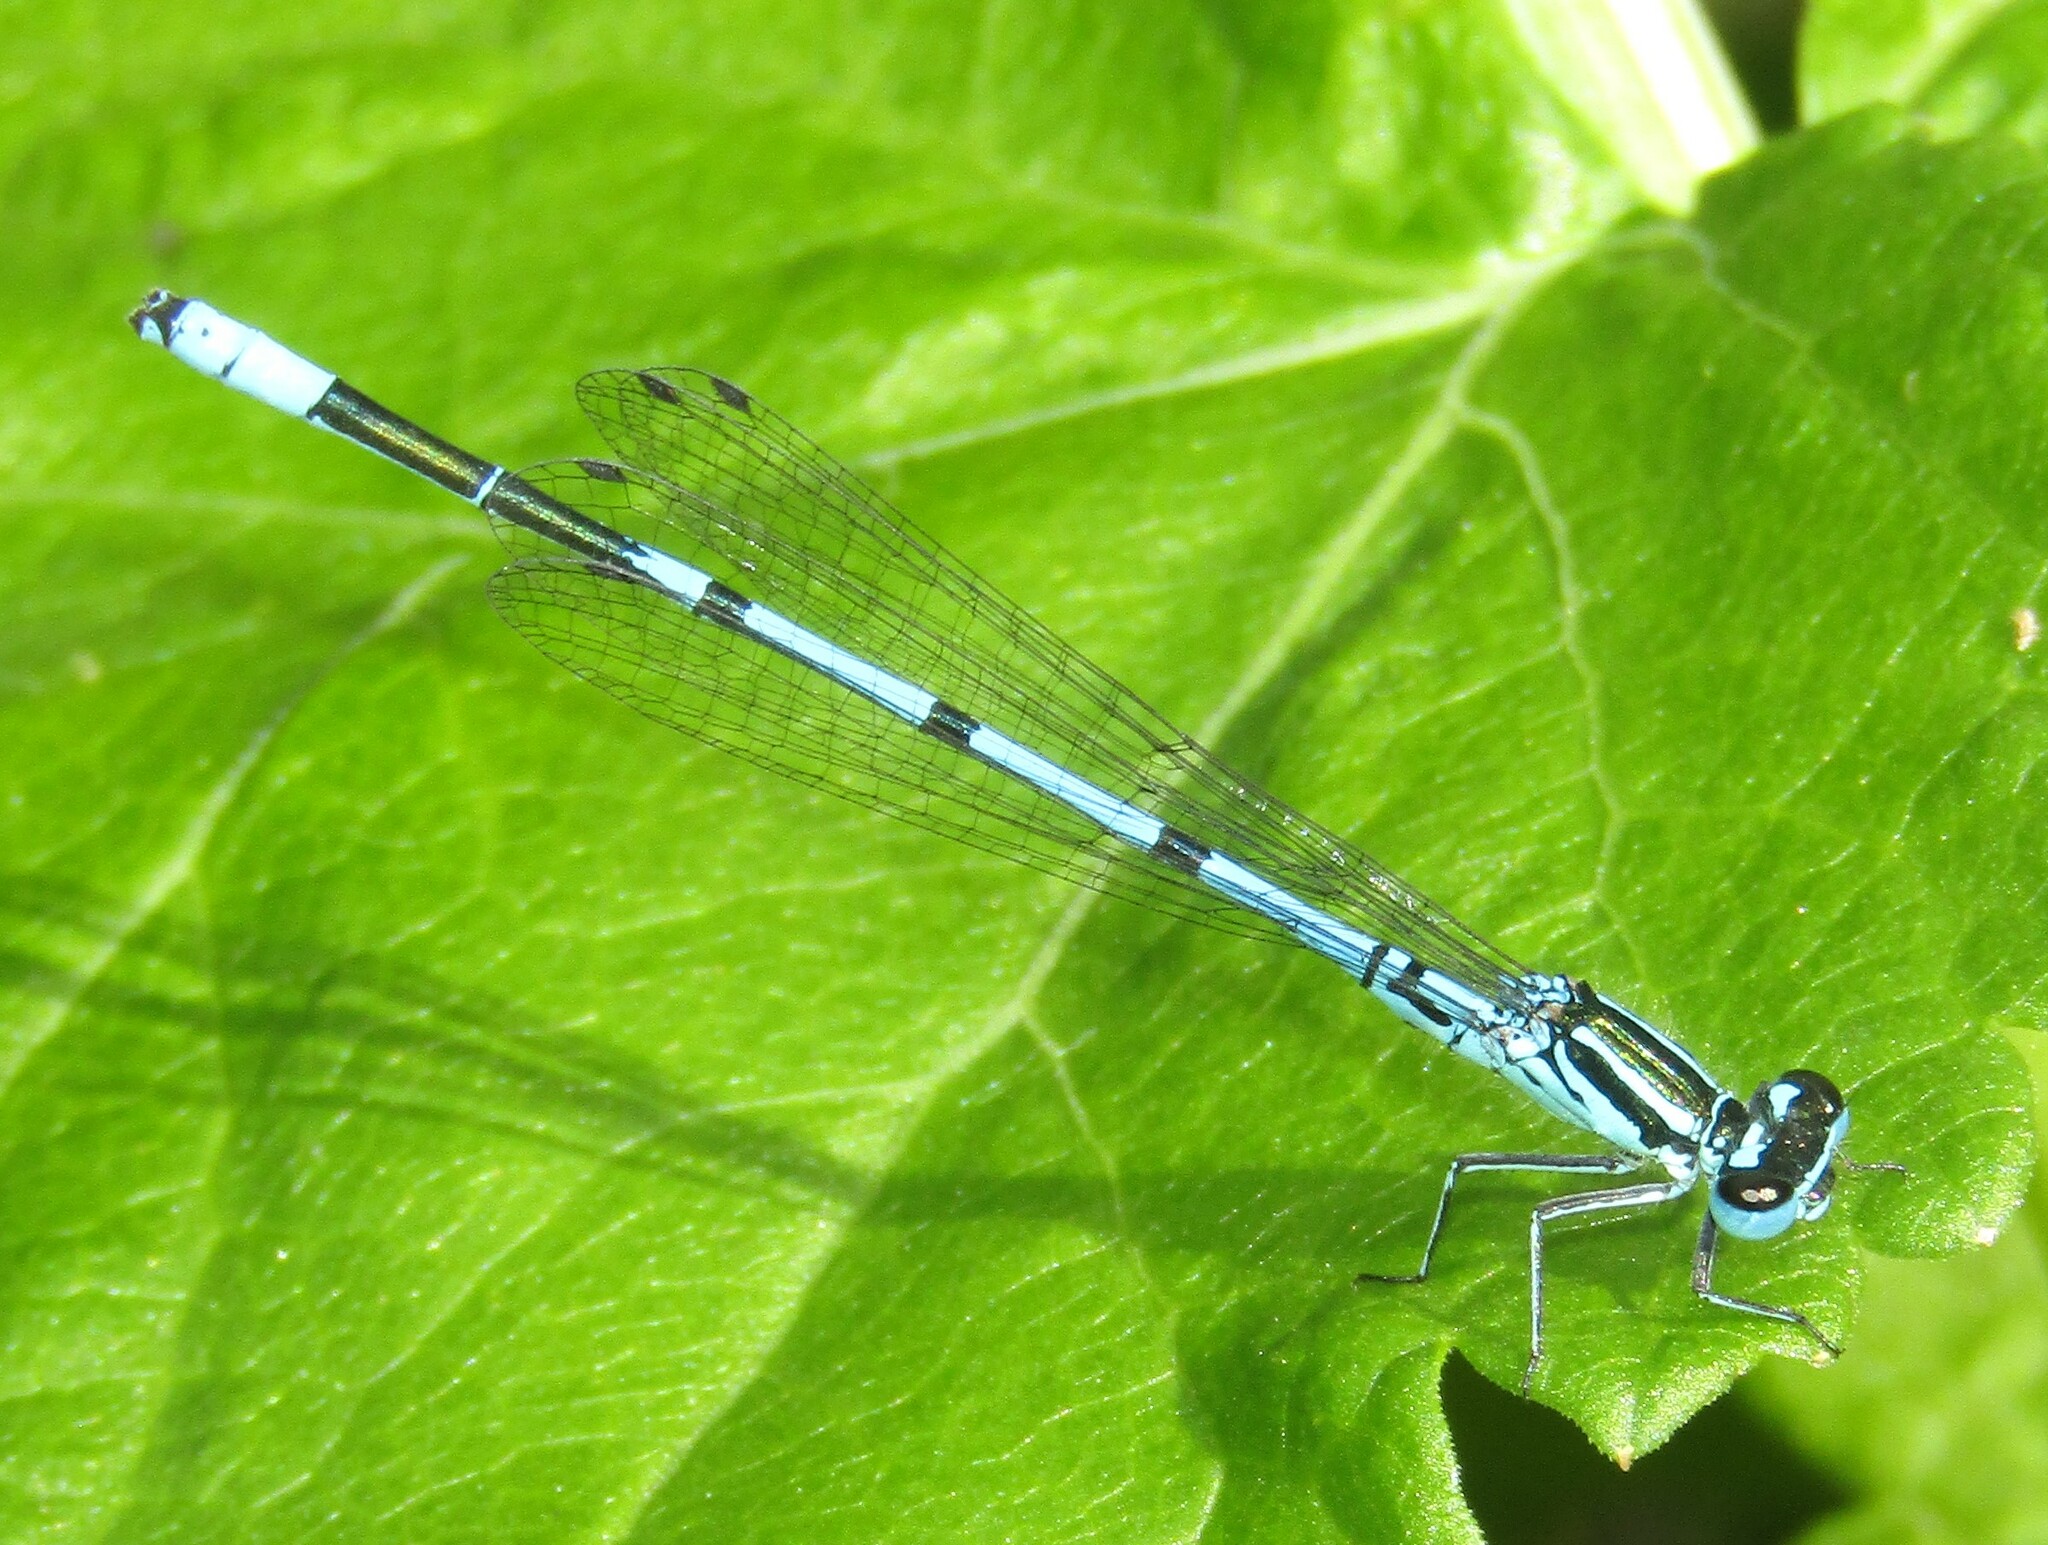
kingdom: Animalia
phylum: Arthropoda
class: Insecta
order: Odonata
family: Coenagrionidae
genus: Coenagrion
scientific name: Coenagrion puella
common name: Azure damselfly
